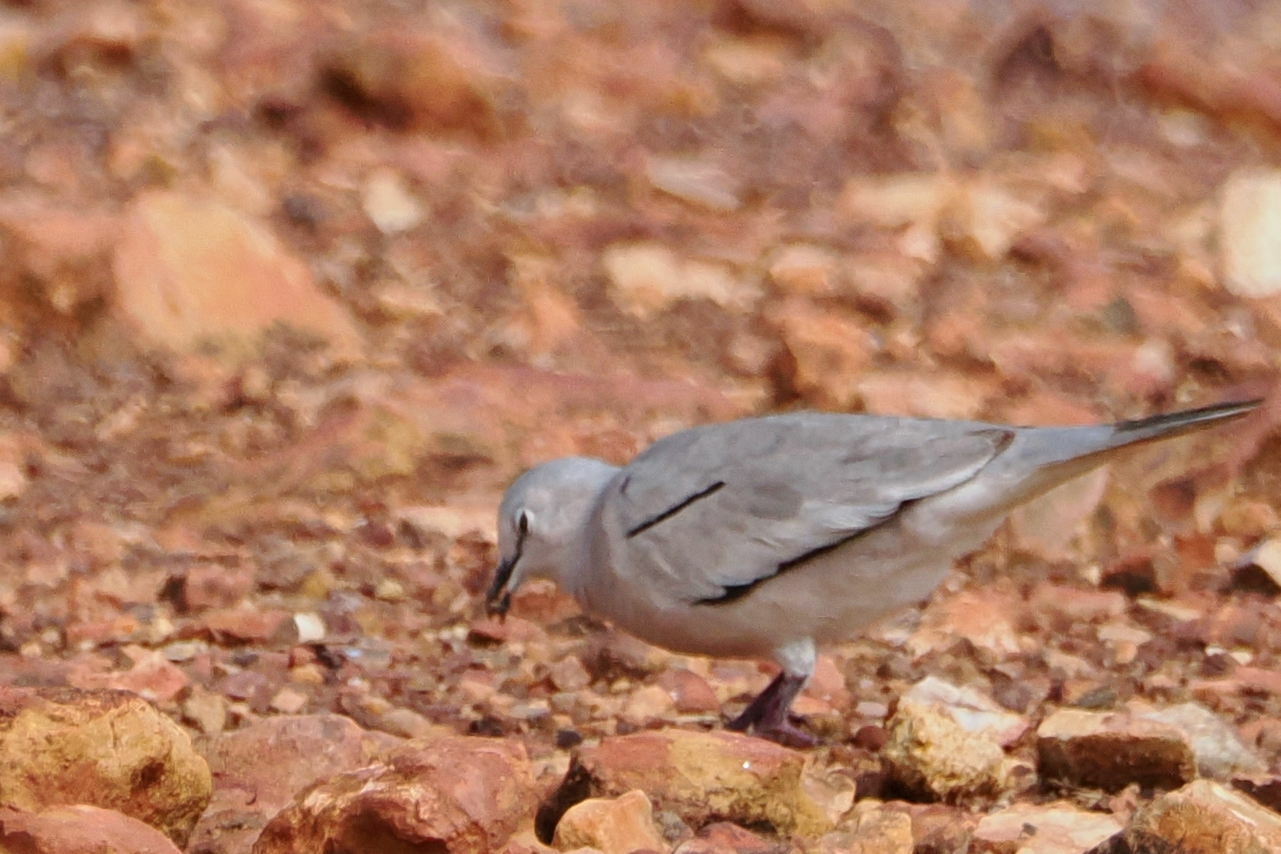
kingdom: Animalia
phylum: Chordata
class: Aves
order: Columbiformes
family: Columbidae
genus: Columbina
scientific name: Columbina picui
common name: Picui ground dove
